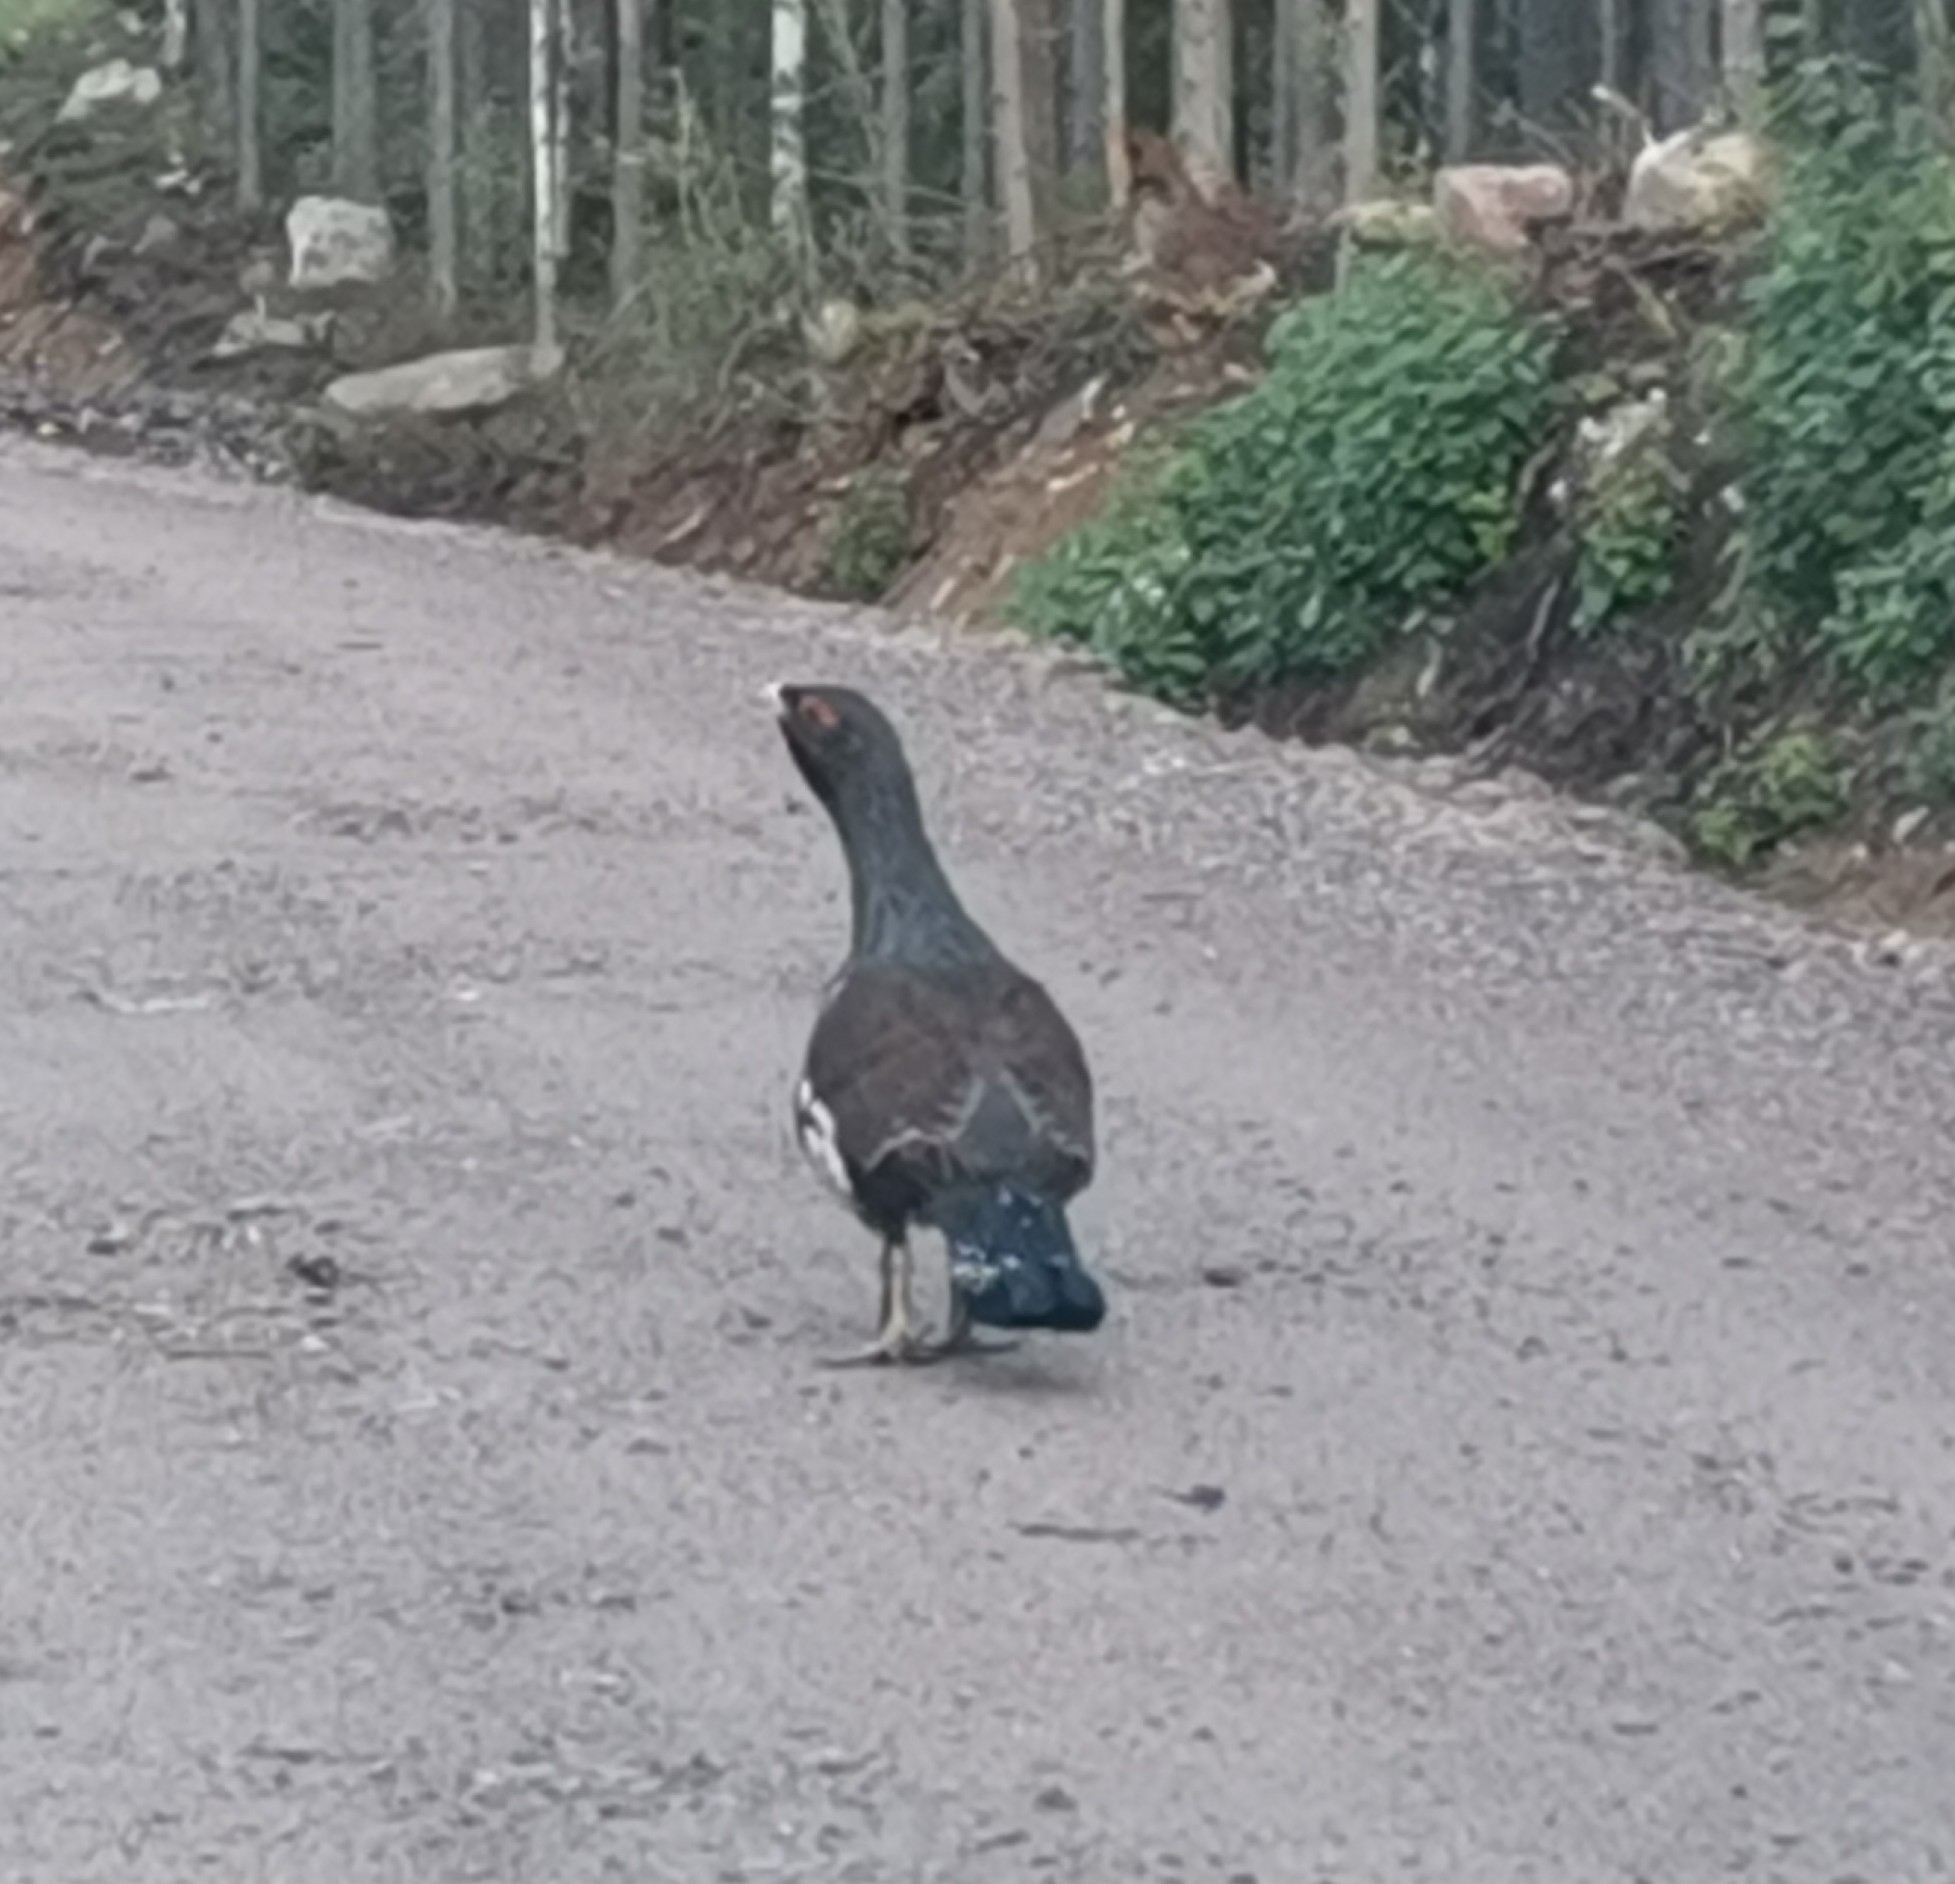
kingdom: Animalia
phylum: Chordata
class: Aves
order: Galliformes
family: Phasianidae
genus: Tetrao
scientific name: Tetrao urogallus
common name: Western capercaillie
